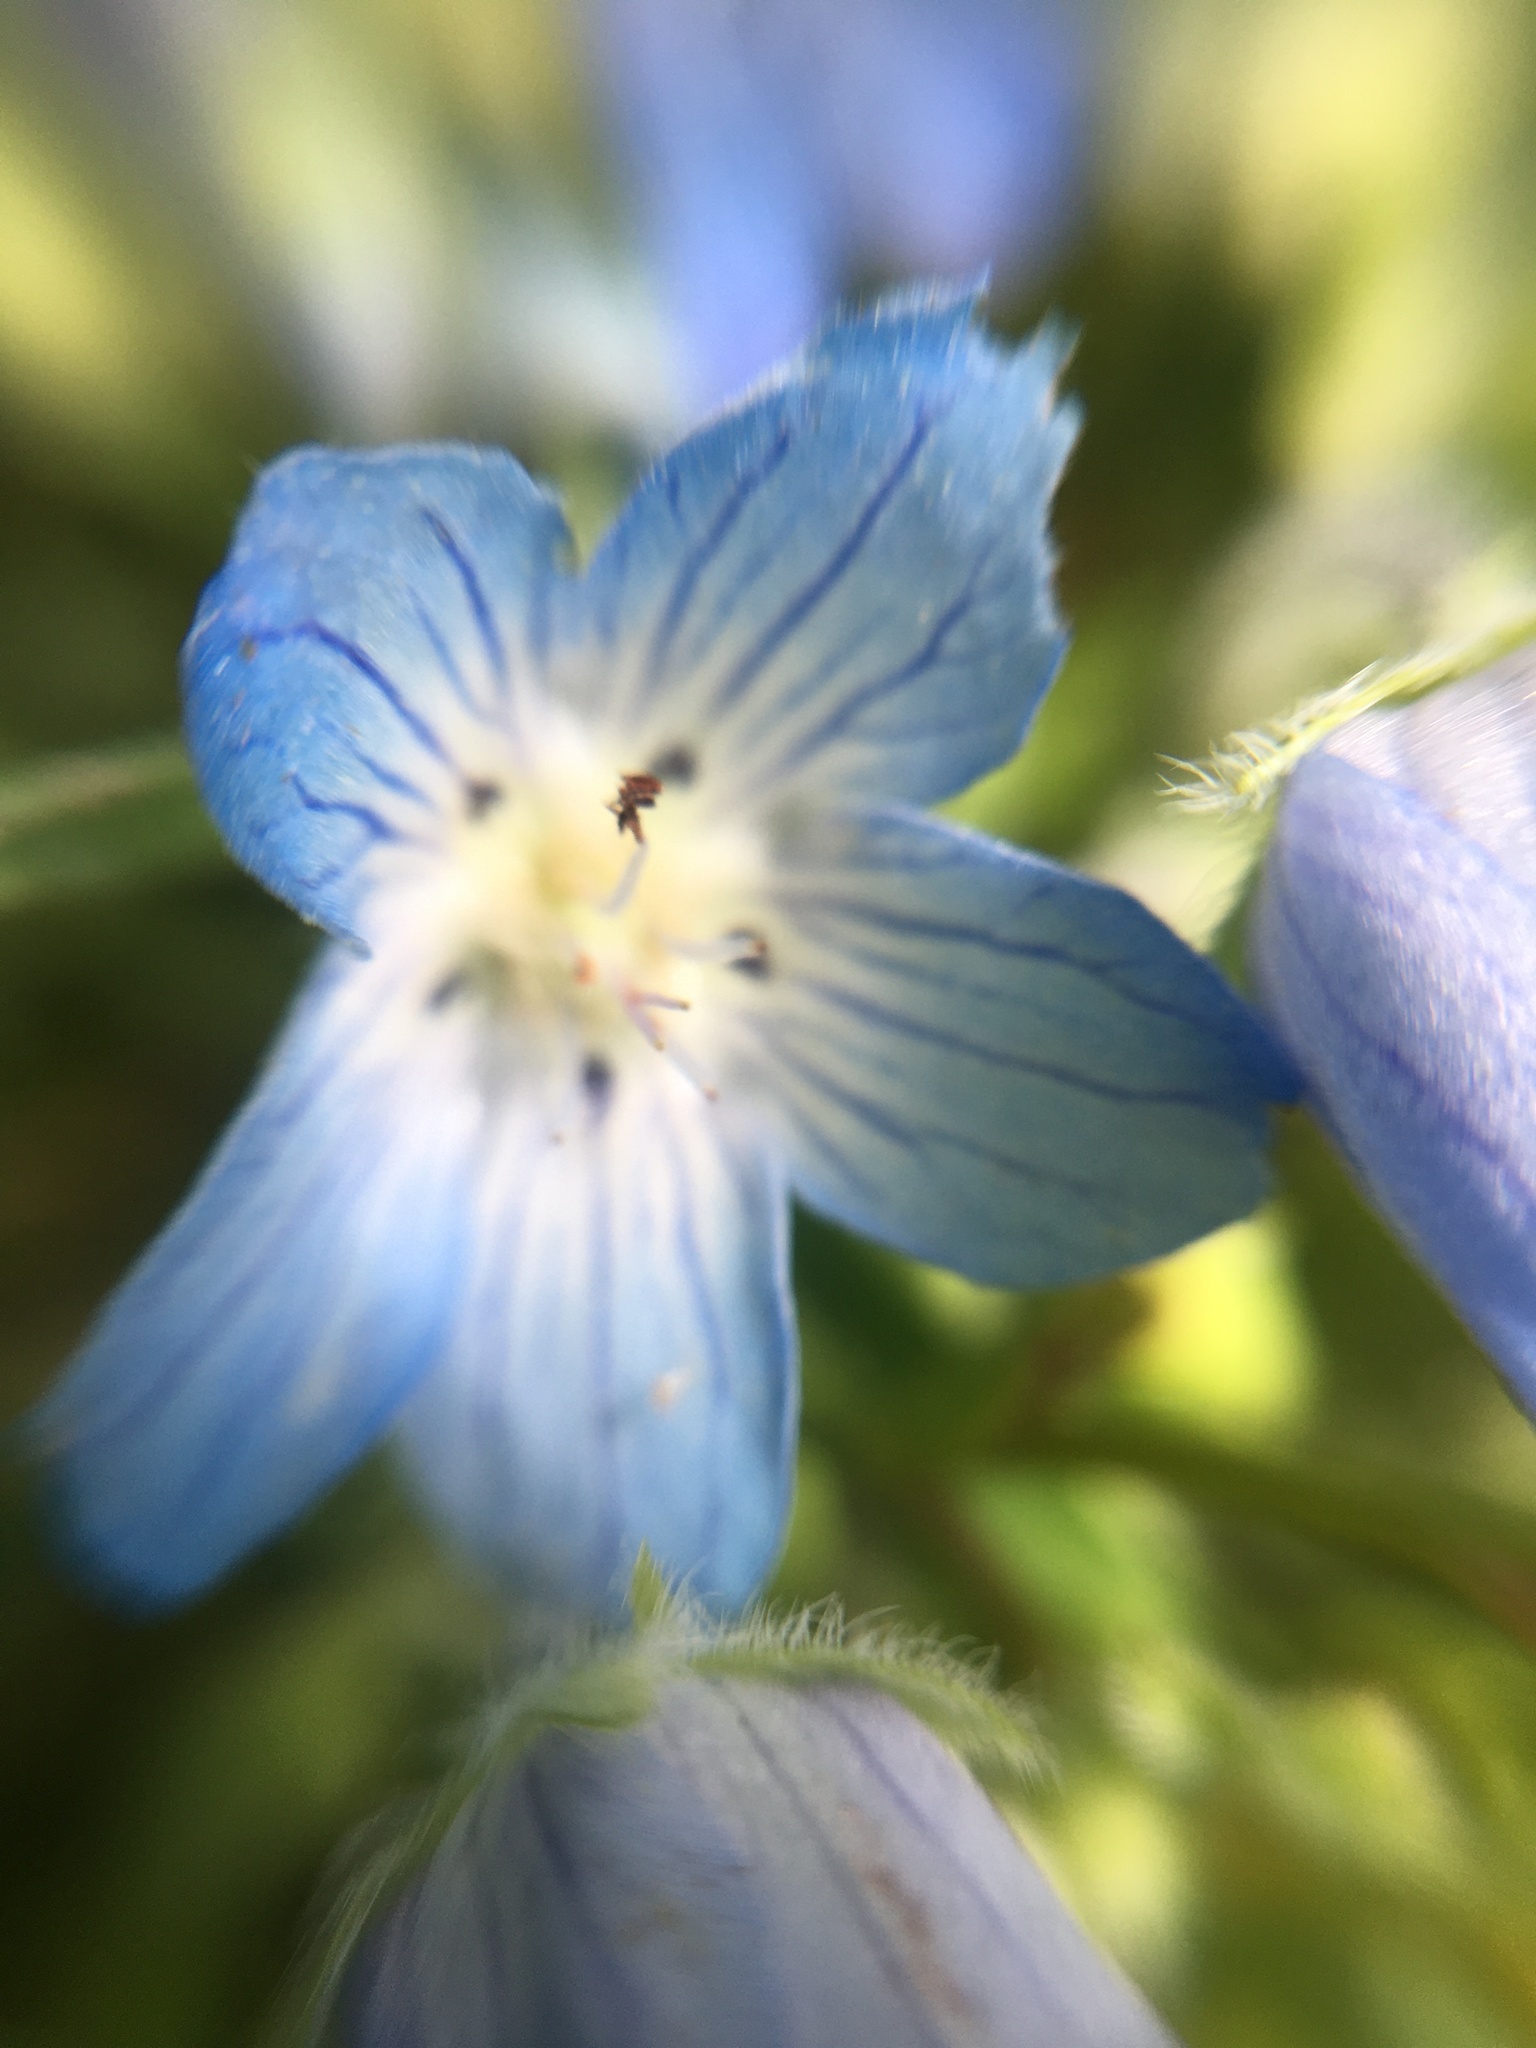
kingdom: Plantae
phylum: Tracheophyta
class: Magnoliopsida
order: Boraginales
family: Hydrophyllaceae
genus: Nemophila
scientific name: Nemophila menziesii
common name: Baby's-blue-eyes
